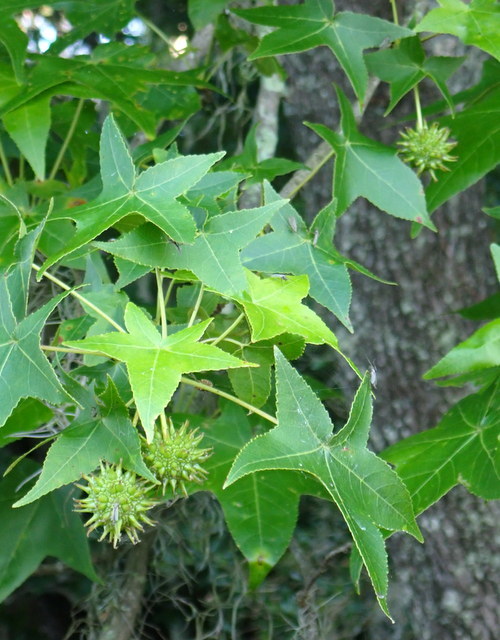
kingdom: Plantae
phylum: Tracheophyta
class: Magnoliopsida
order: Saxifragales
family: Altingiaceae
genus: Liquidambar
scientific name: Liquidambar styraciflua
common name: Sweet gum
